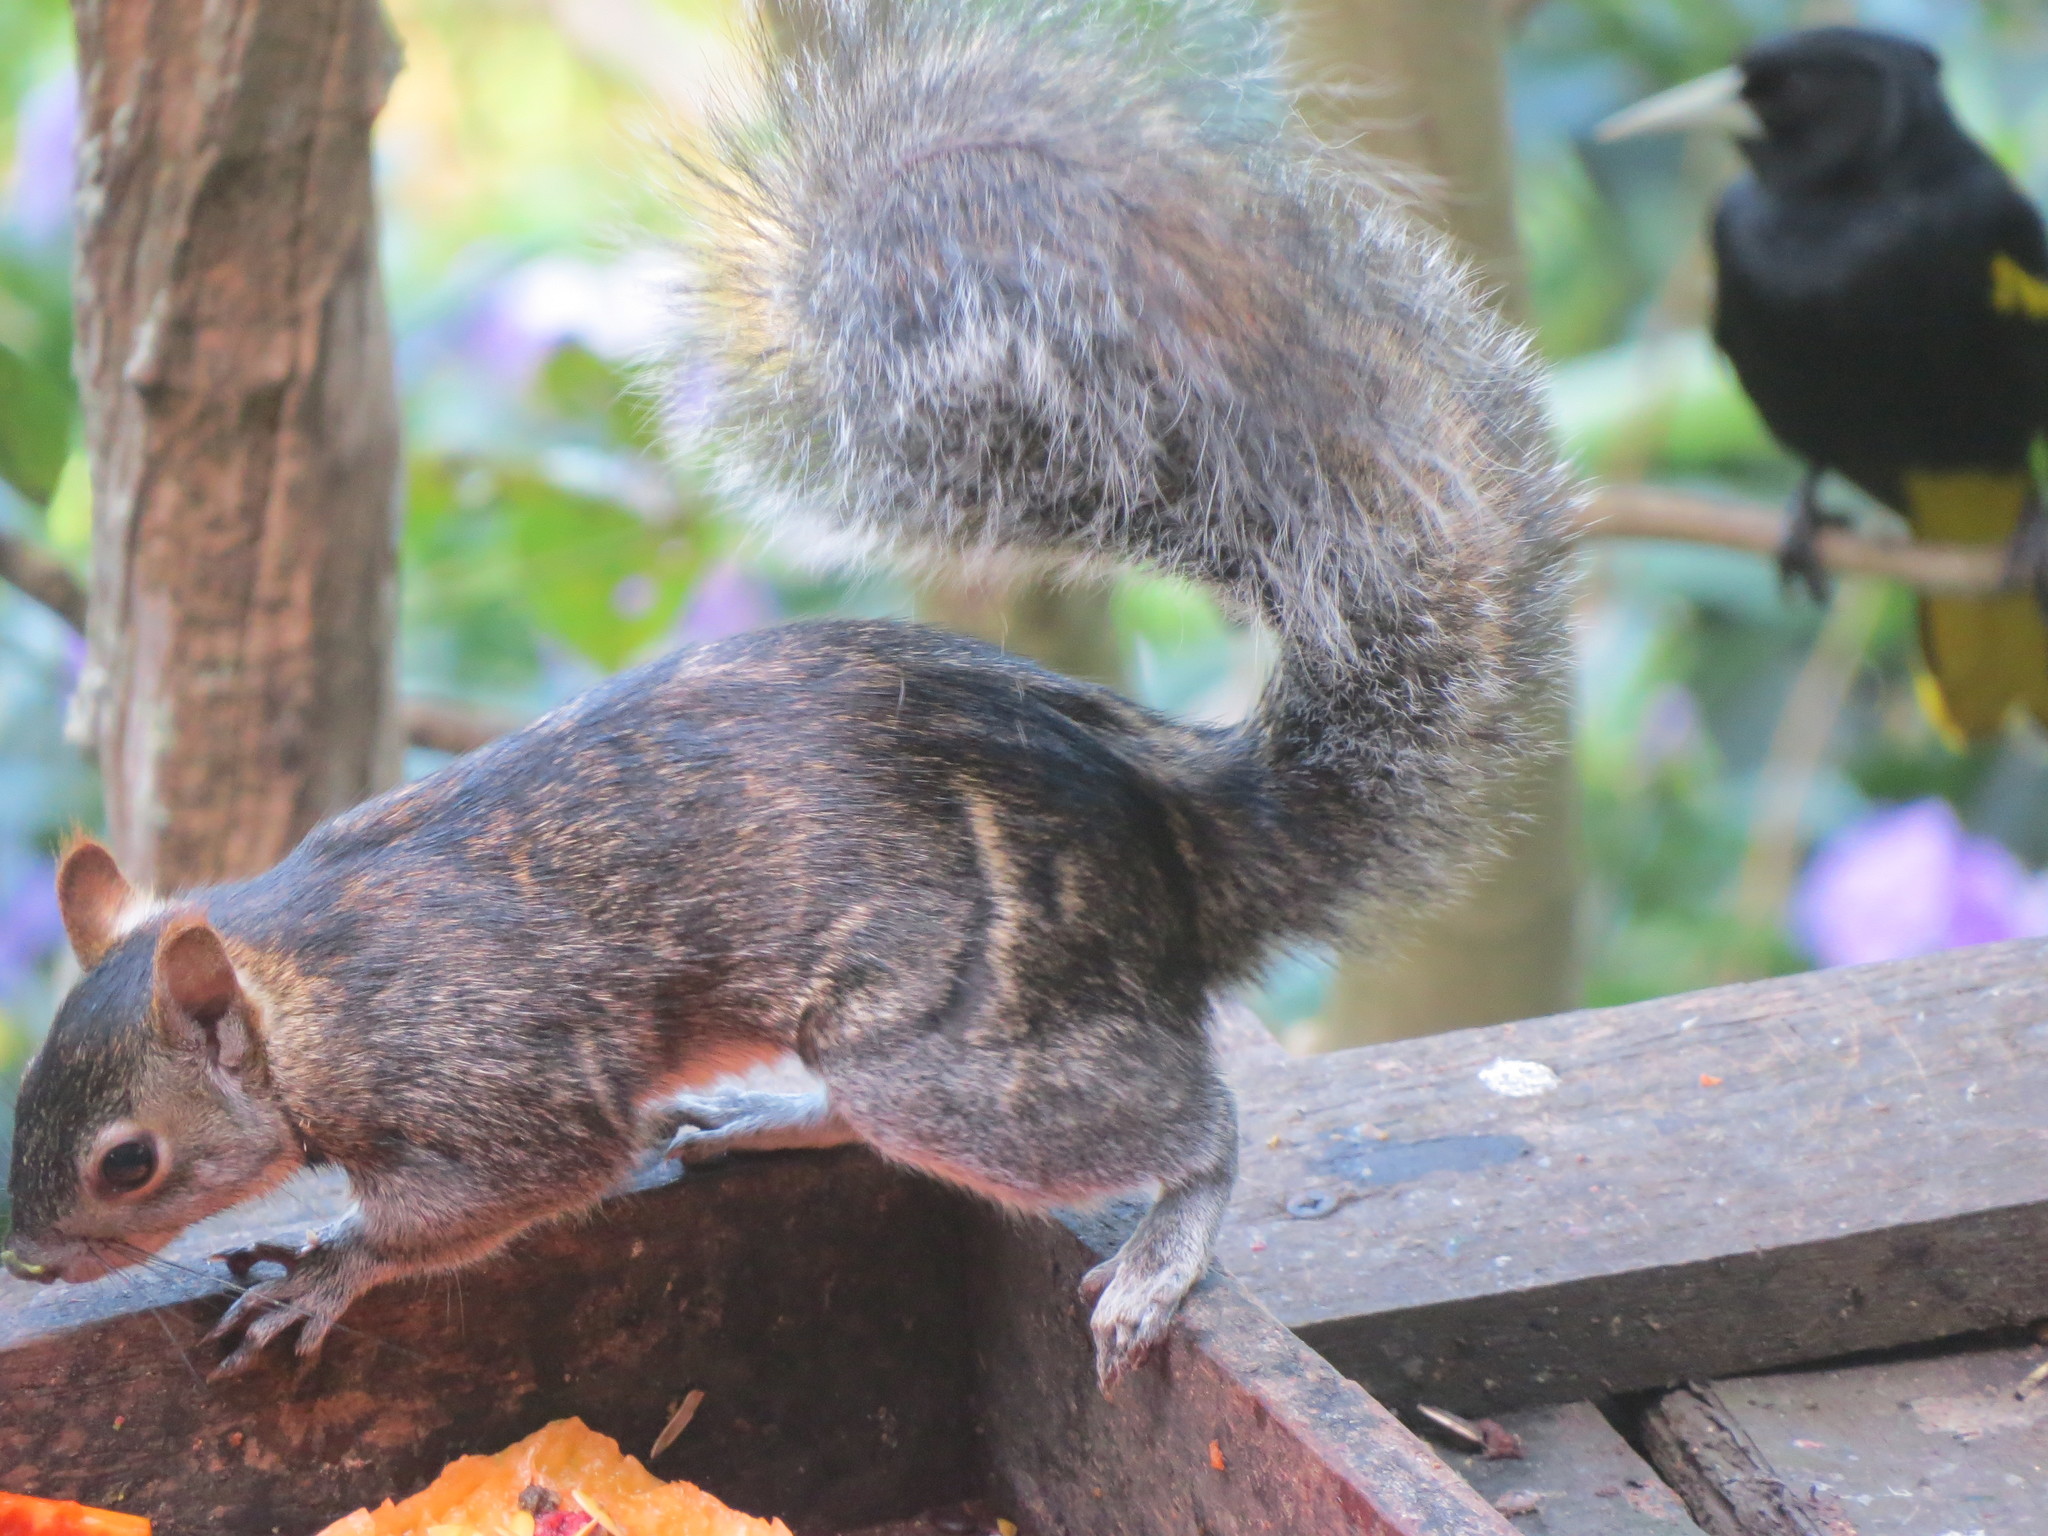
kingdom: Animalia
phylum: Chordata
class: Mammalia
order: Rodentia
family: Sciuridae
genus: Sciurus
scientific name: Sciurus colliaei
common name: Collie's squirrel
